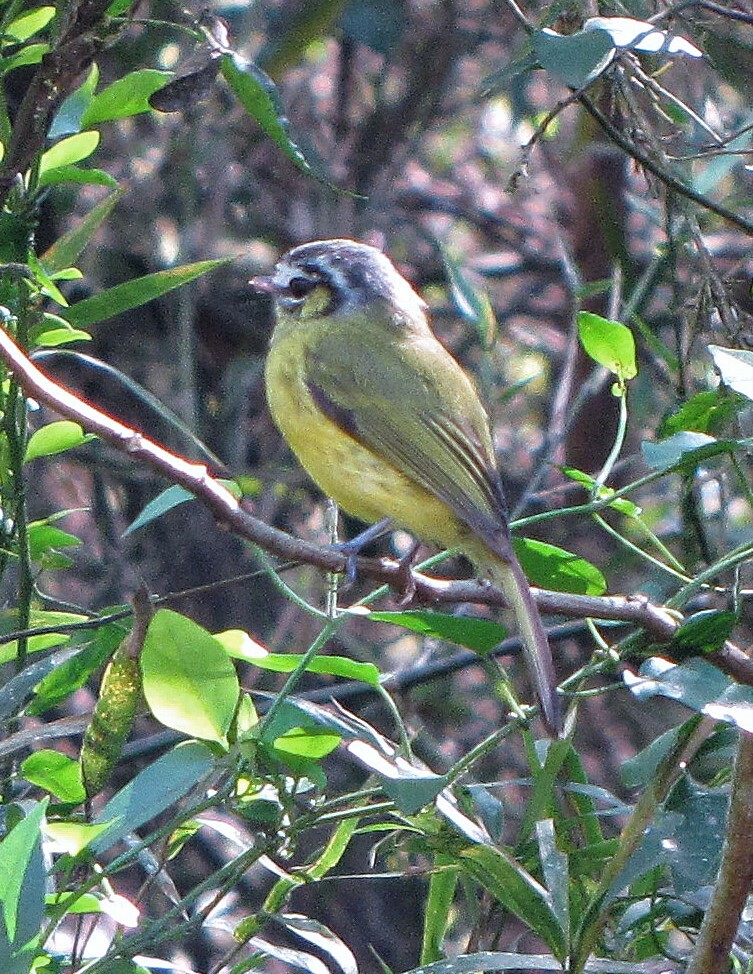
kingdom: Animalia
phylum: Chordata
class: Aves
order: Passeriformes
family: Tyrannidae
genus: Phylloscartes
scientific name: Phylloscartes eximius
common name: Southern bristle-tyrant
